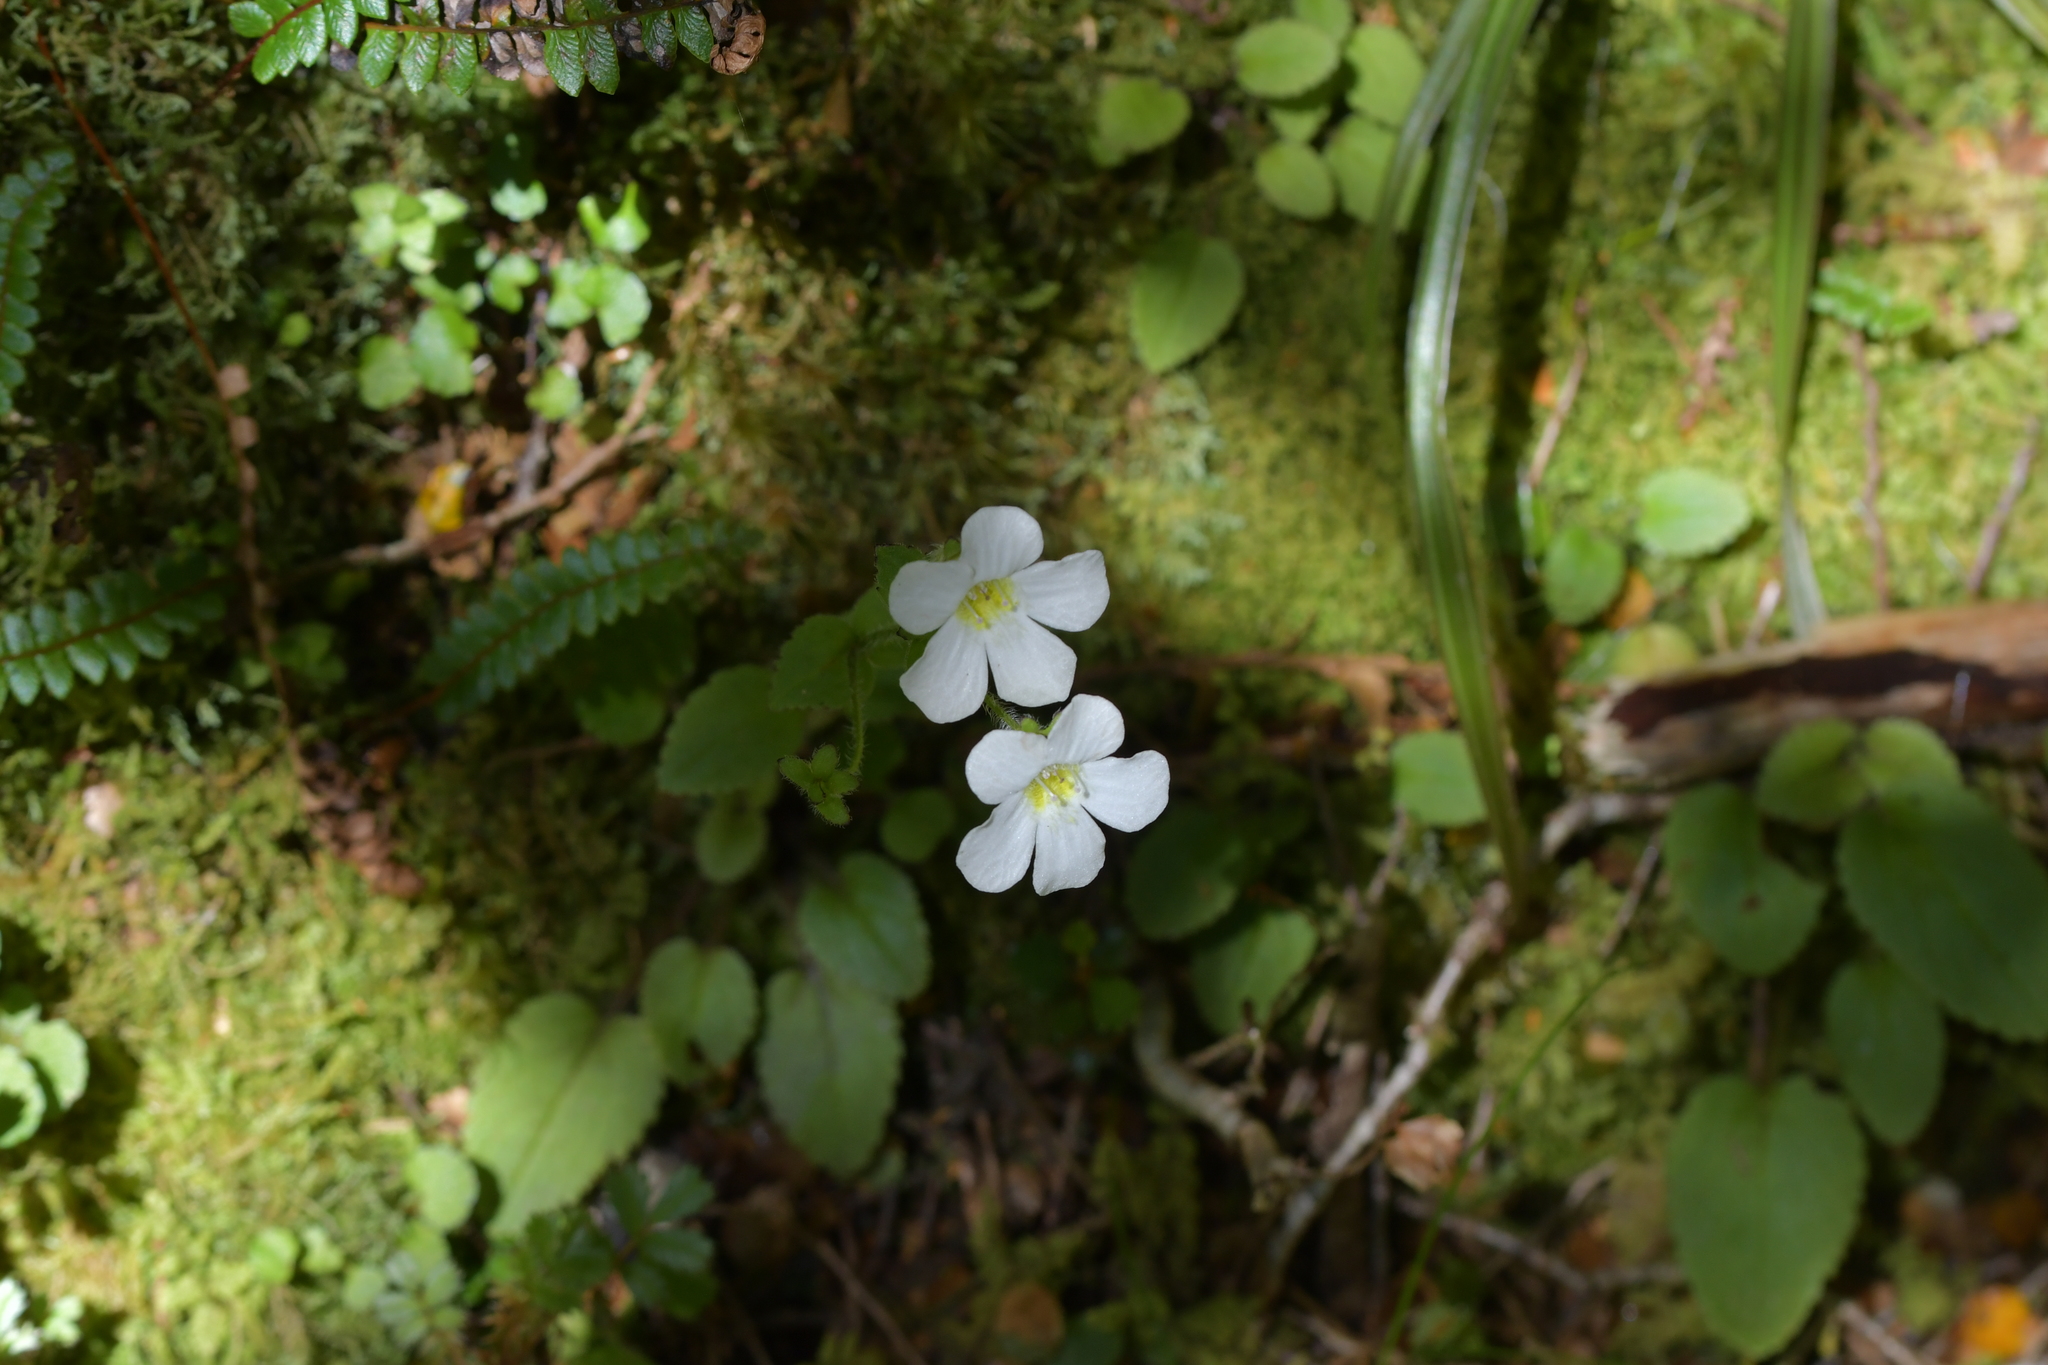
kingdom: Plantae
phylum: Tracheophyta
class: Magnoliopsida
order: Lamiales
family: Plantaginaceae
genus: Ourisia
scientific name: Ourisia crosbyi
